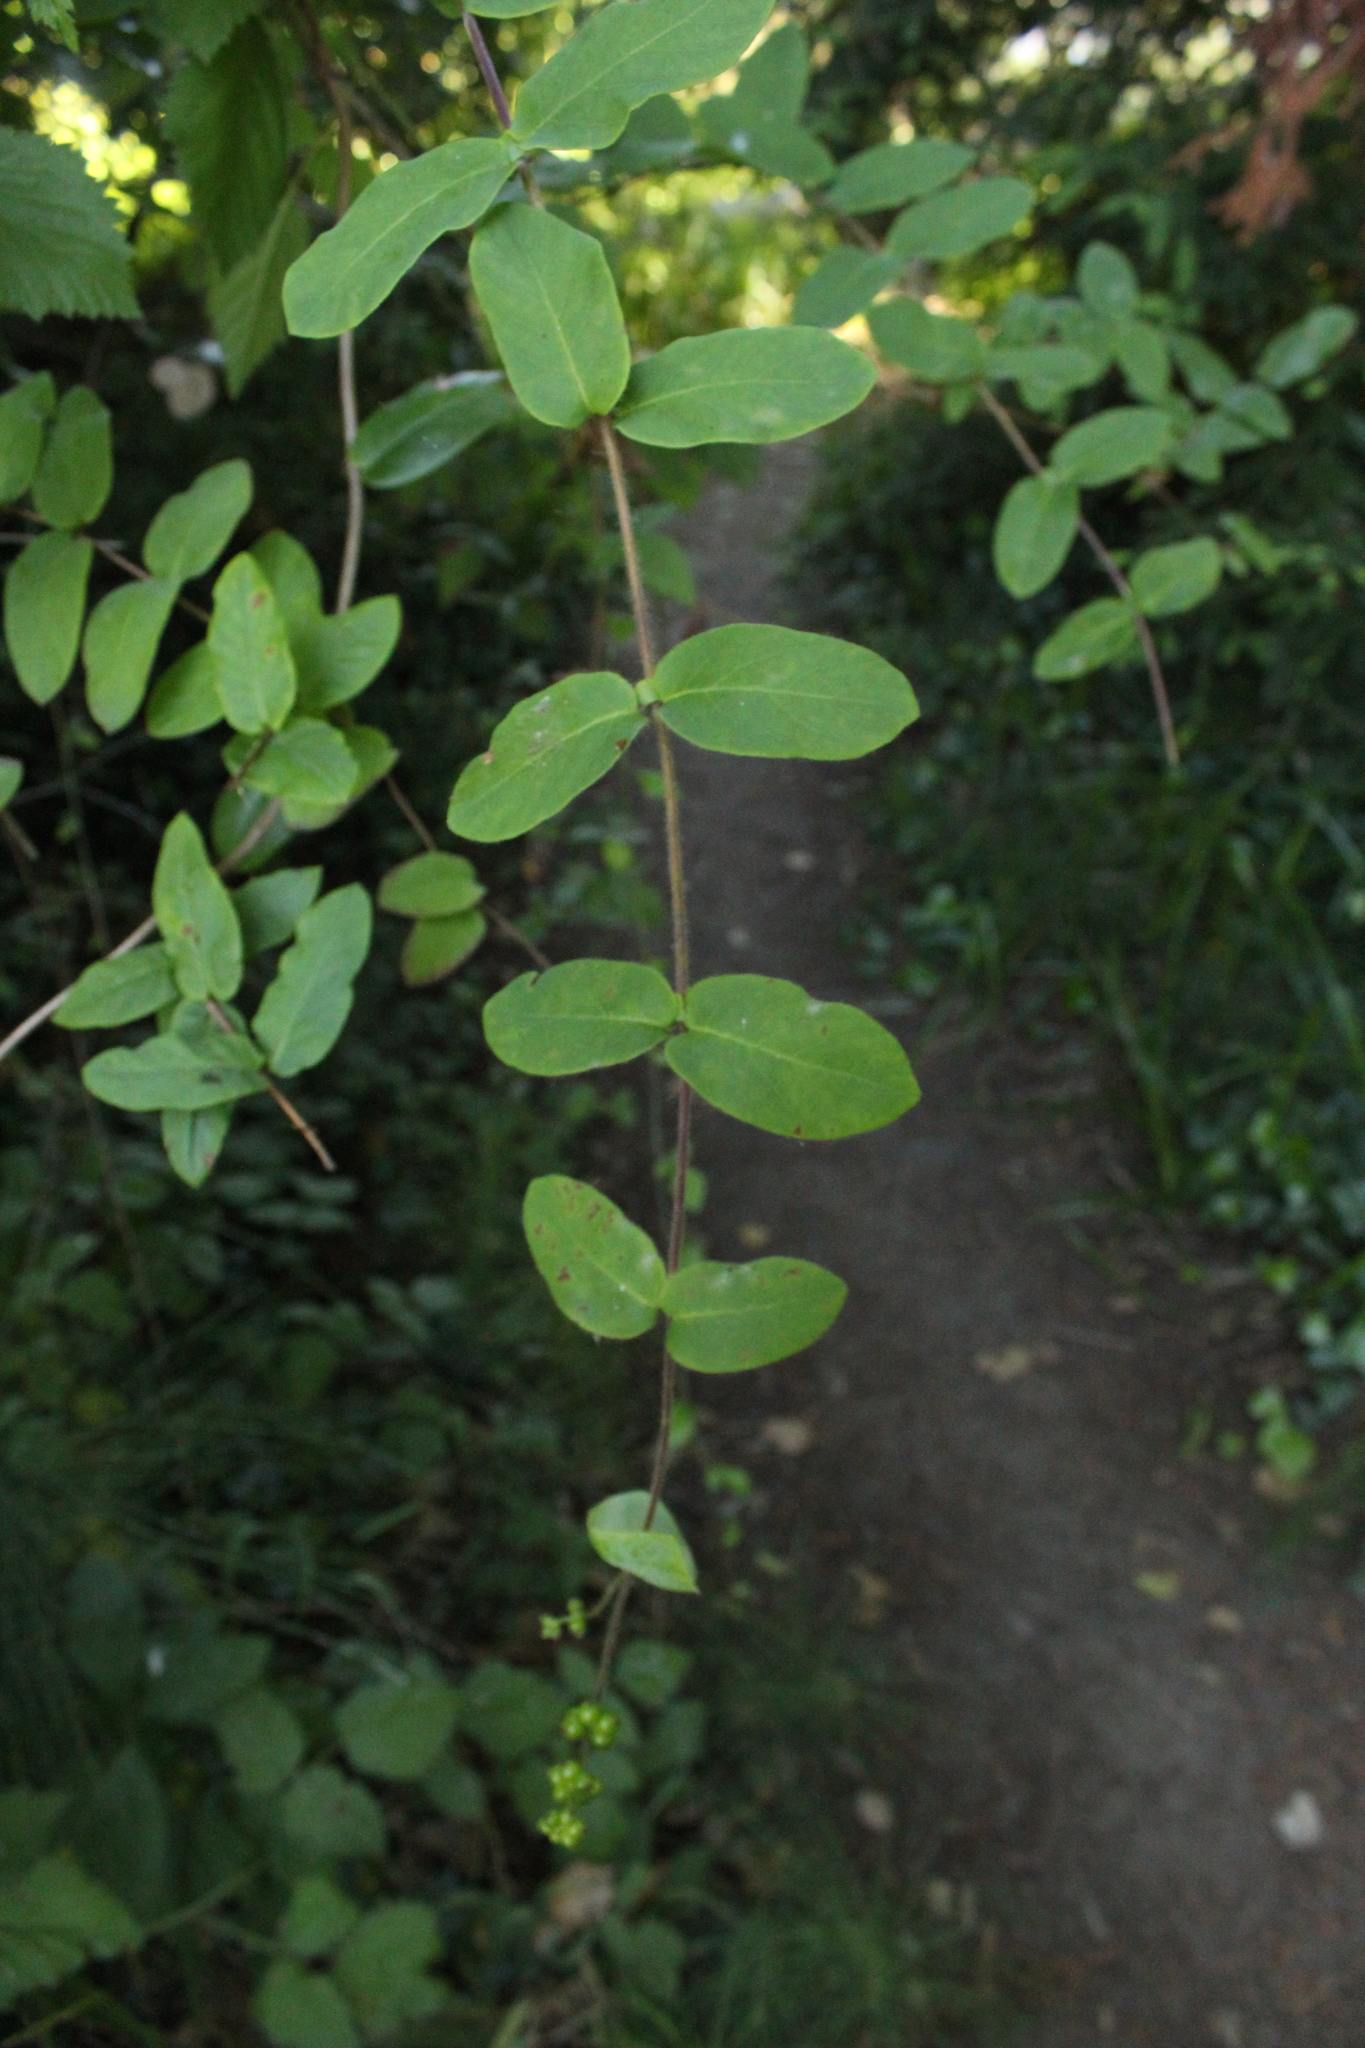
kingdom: Plantae
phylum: Tracheophyta
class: Magnoliopsida
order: Dipsacales
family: Caprifoliaceae
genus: Lonicera
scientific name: Lonicera hispidula
